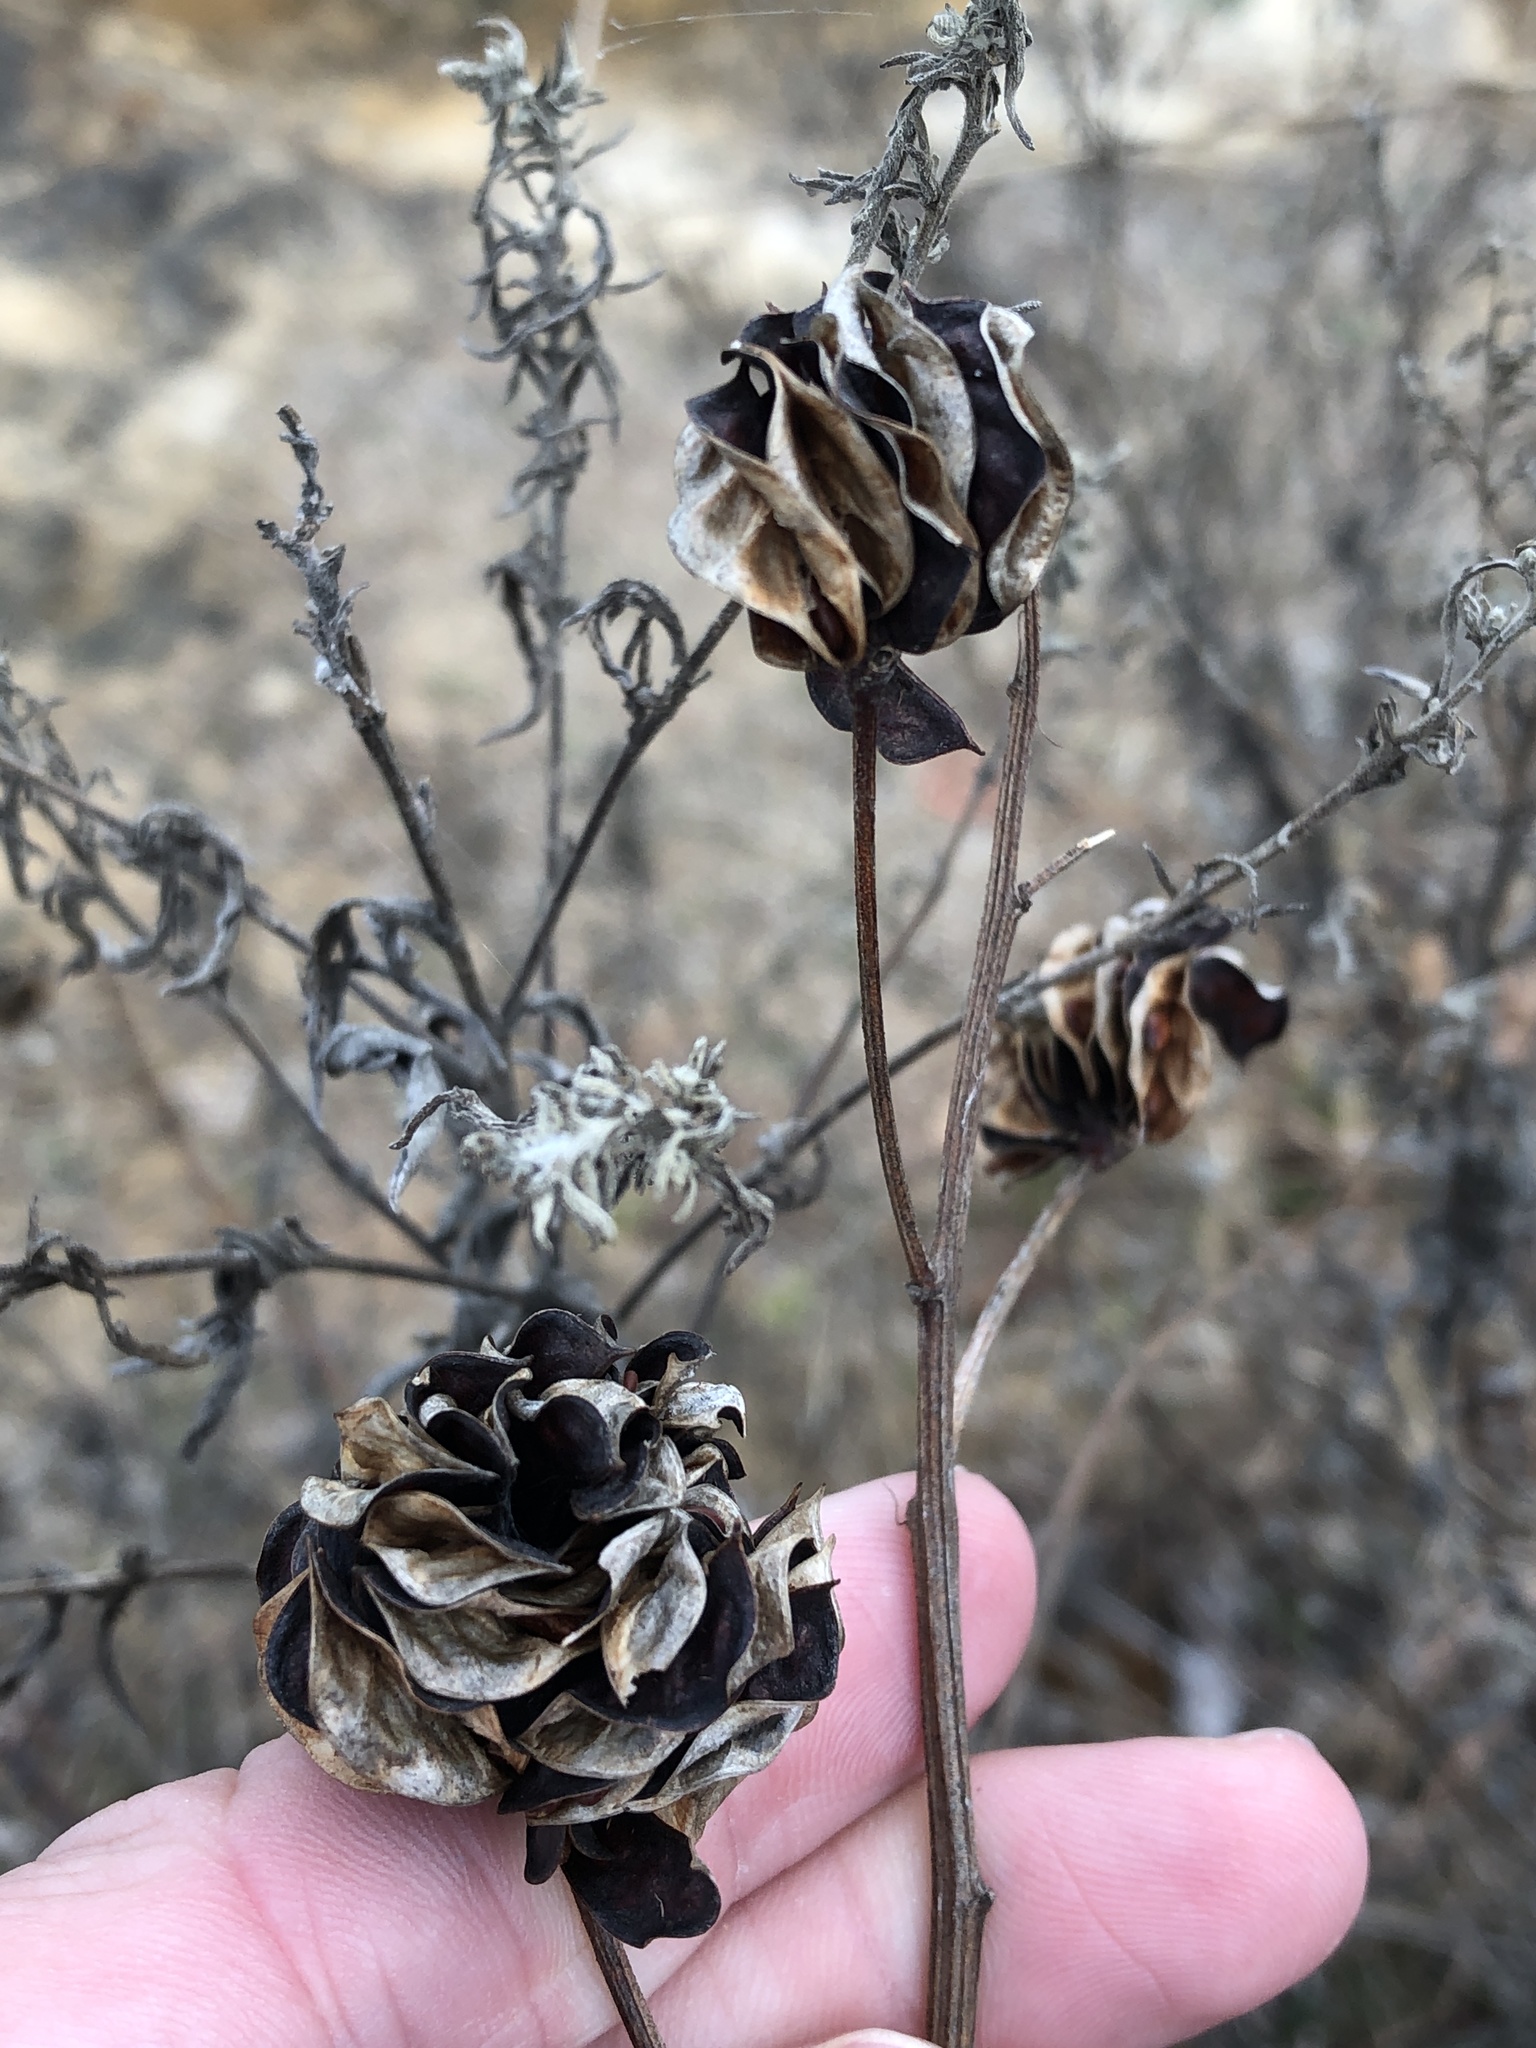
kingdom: Plantae
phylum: Tracheophyta
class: Magnoliopsida
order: Fabales
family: Fabaceae
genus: Desmanthus
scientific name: Desmanthus illinoensis
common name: Illinois bundle-flower
